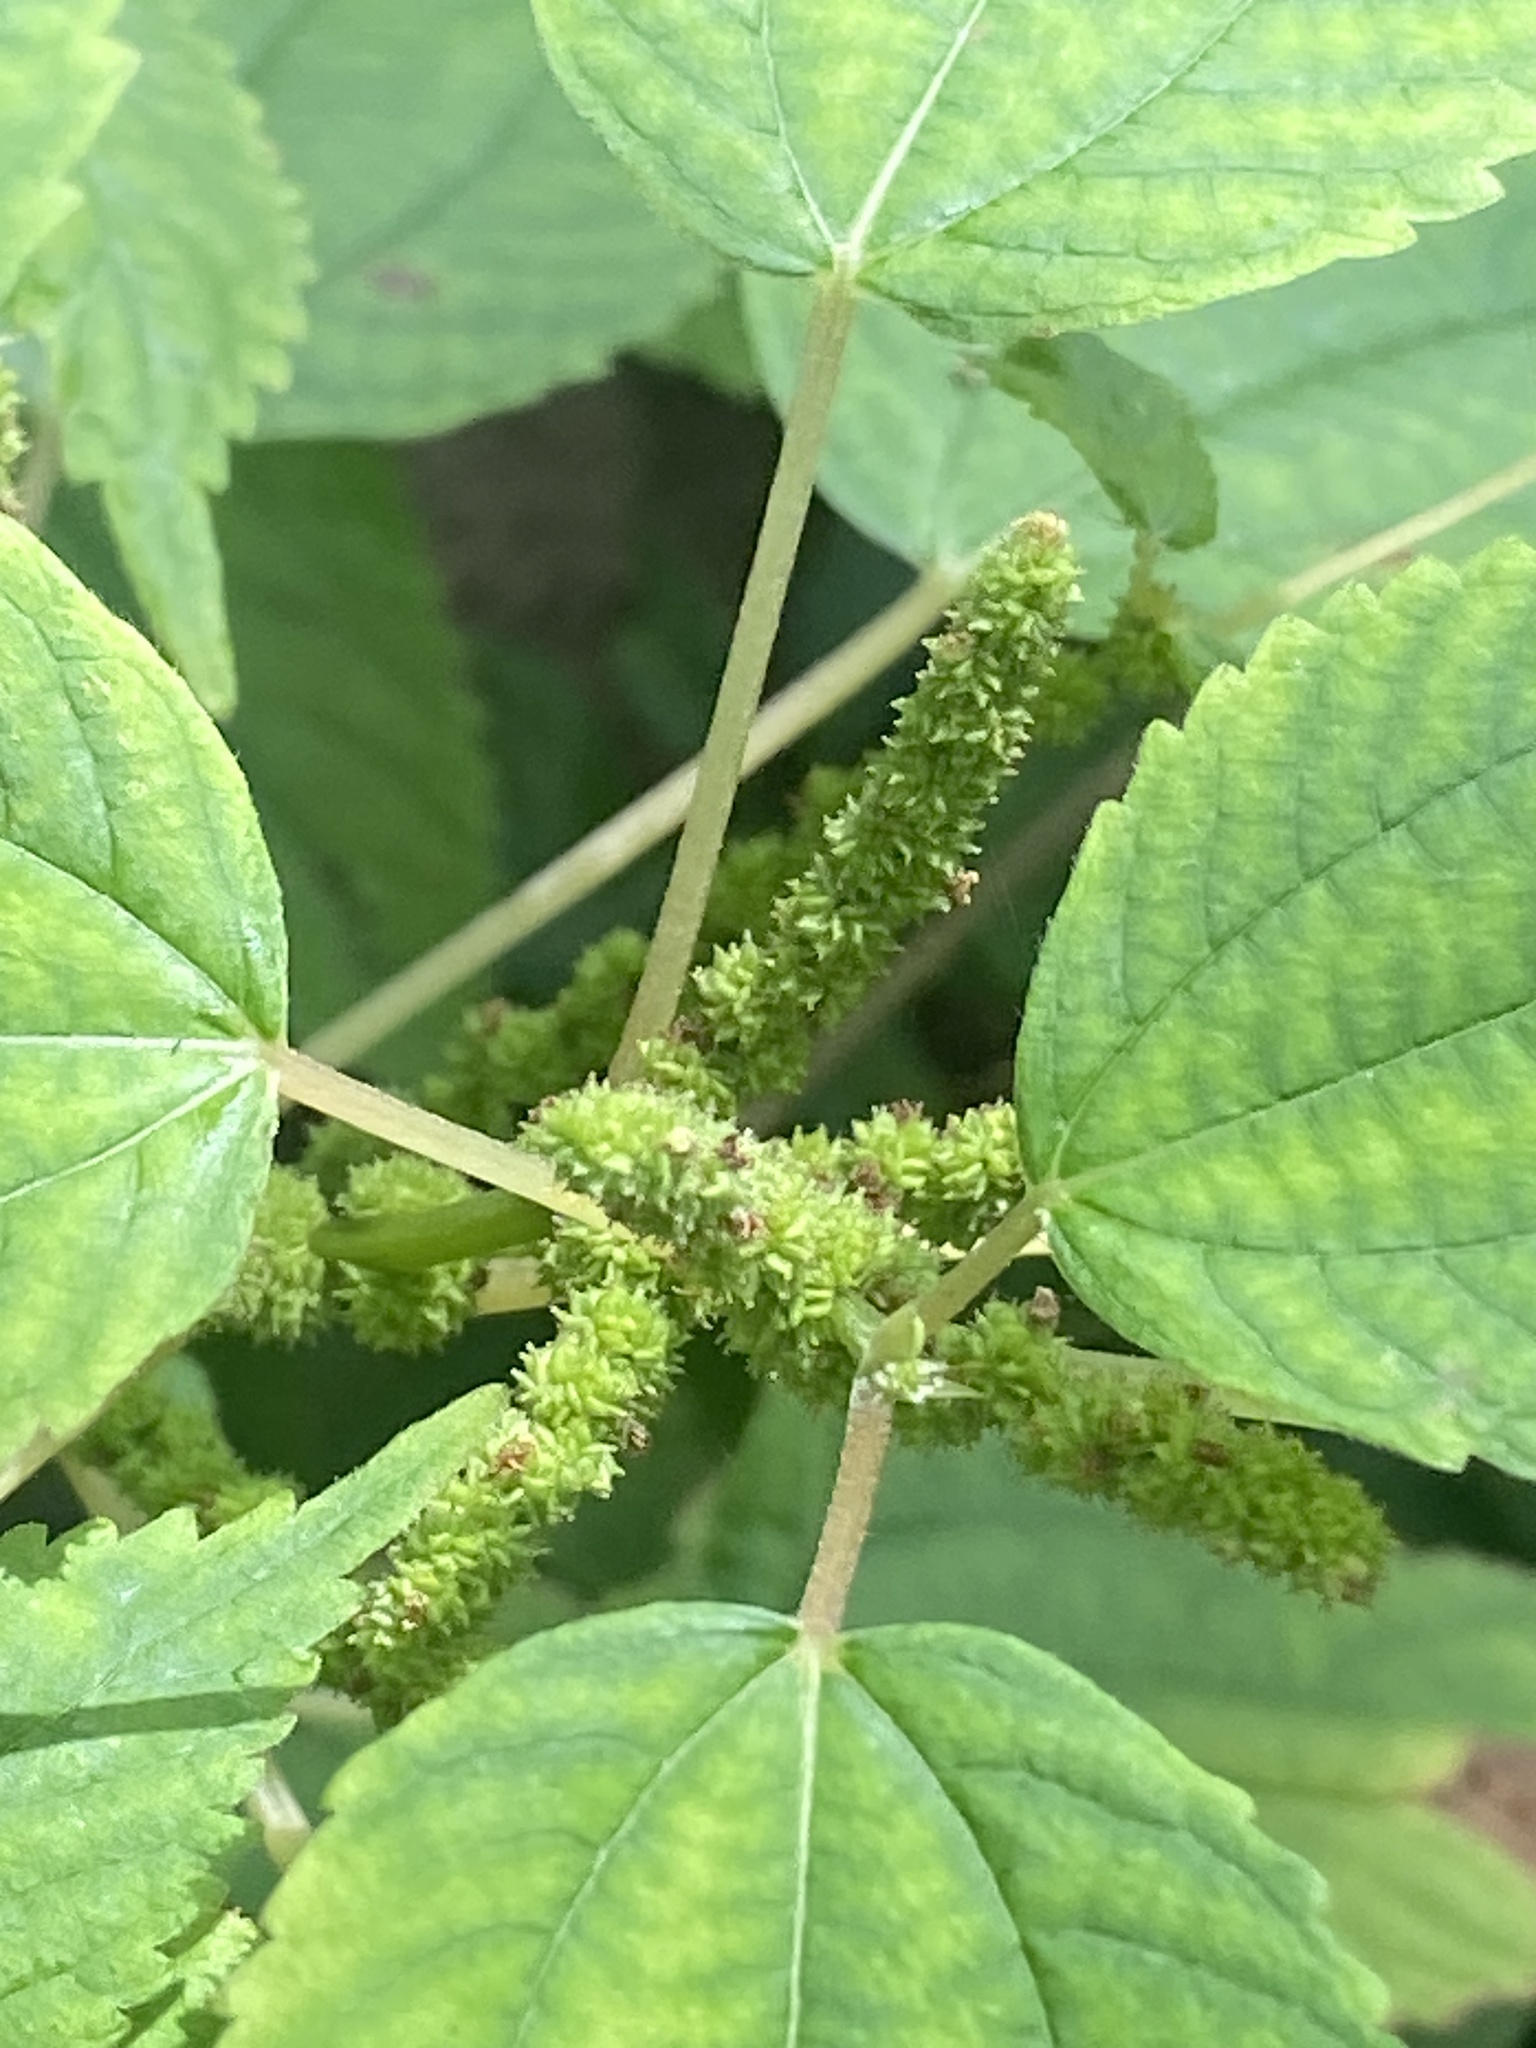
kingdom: Plantae
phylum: Tracheophyta
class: Magnoliopsida
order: Rosales
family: Urticaceae
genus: Boehmeria
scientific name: Boehmeria cylindrica
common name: Bog-hemp
